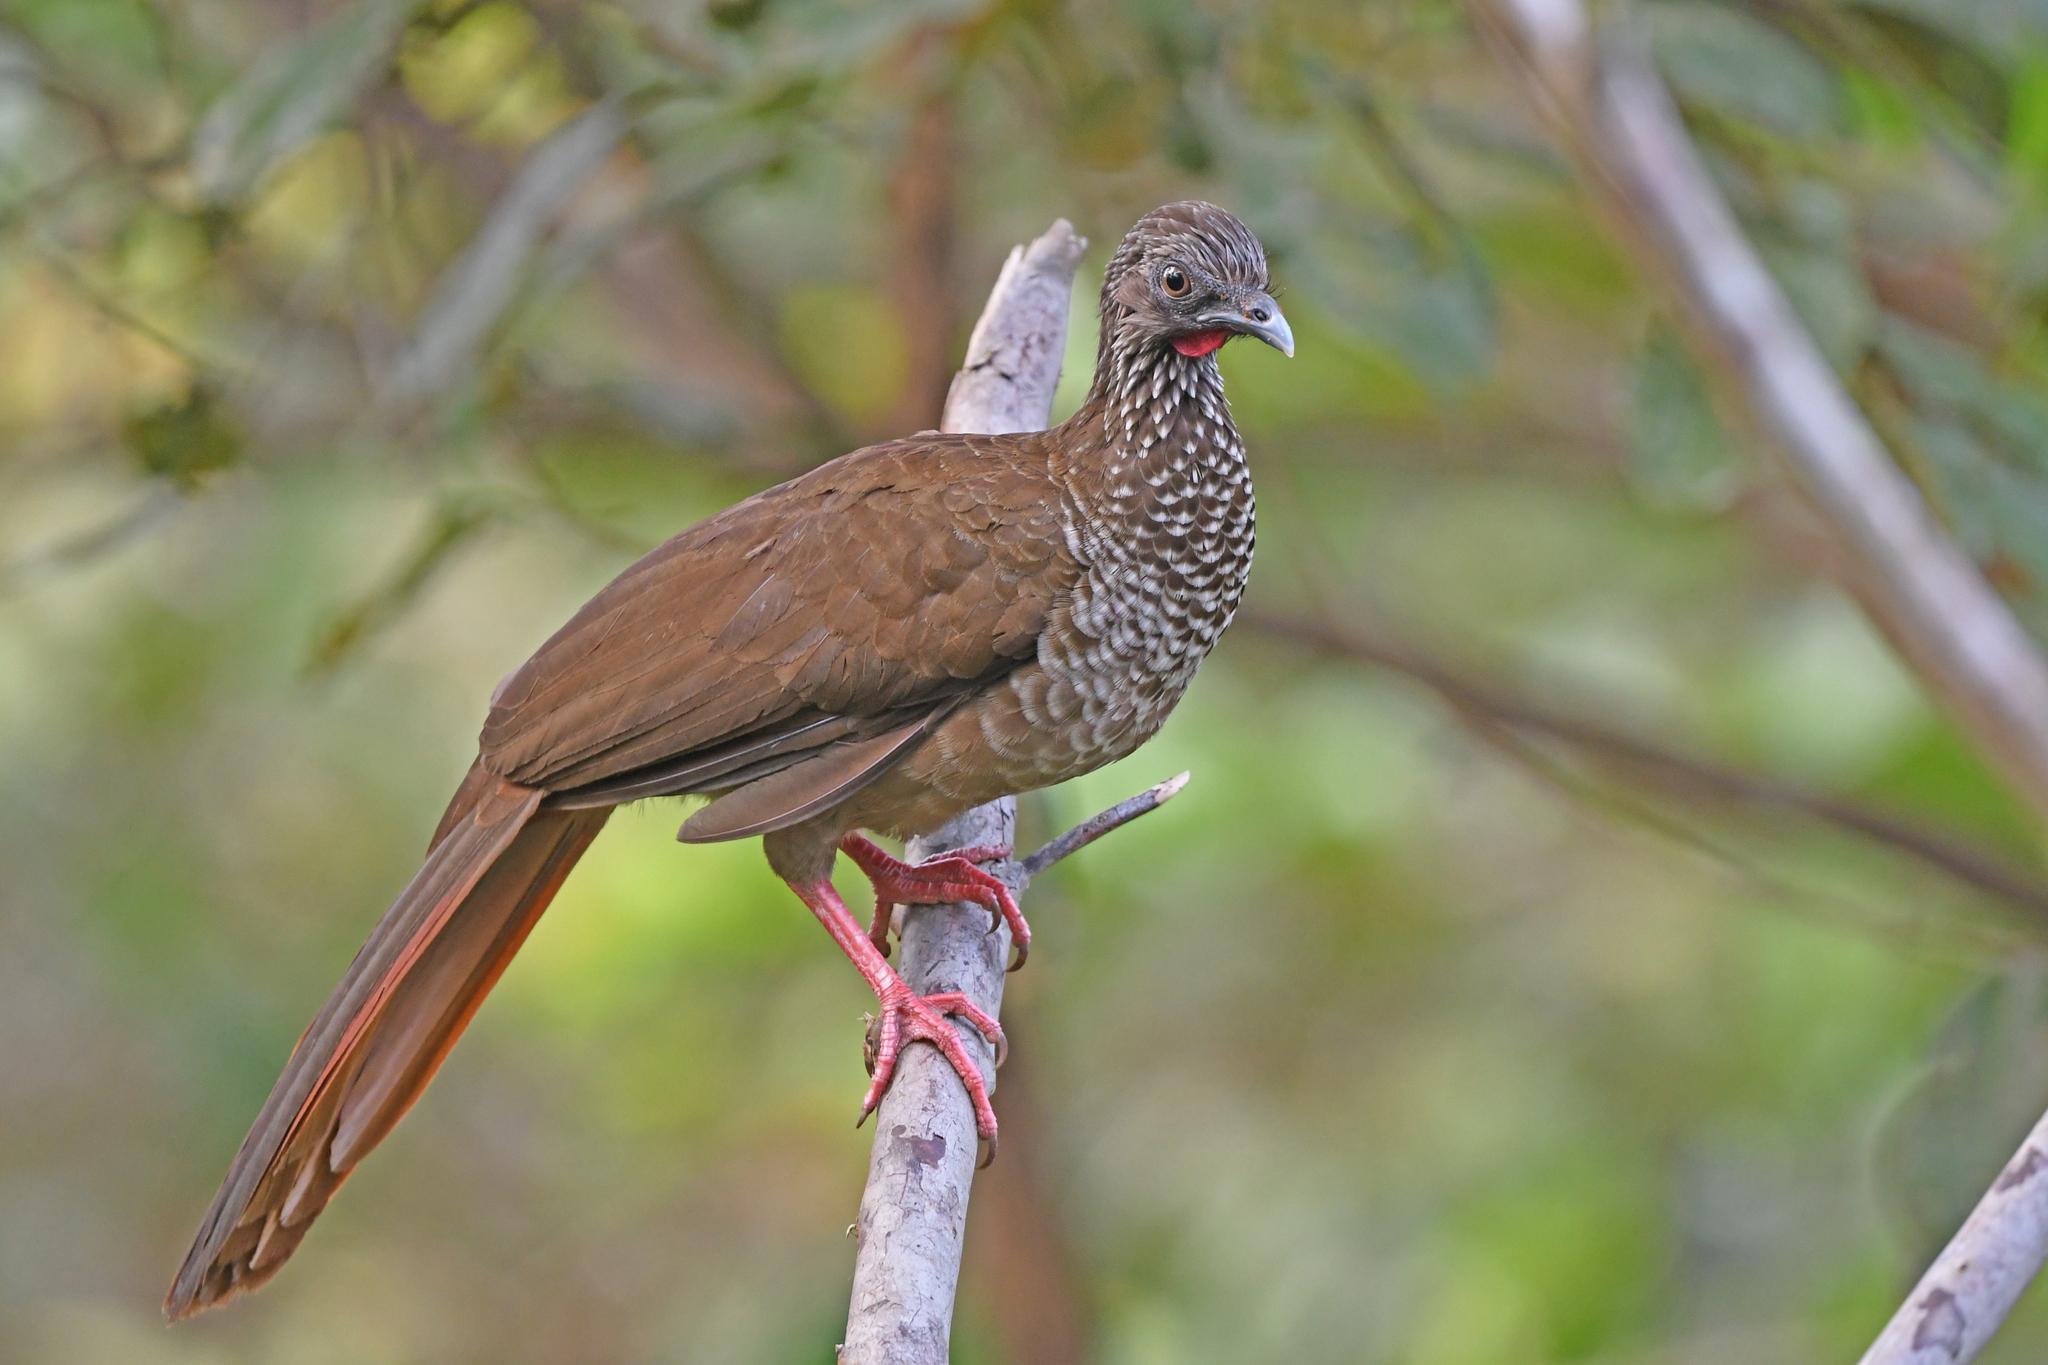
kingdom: Animalia
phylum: Chordata
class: Aves
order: Galliformes
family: Cracidae
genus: Ortalis
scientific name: Ortalis guttata
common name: Speckled chachalaca
